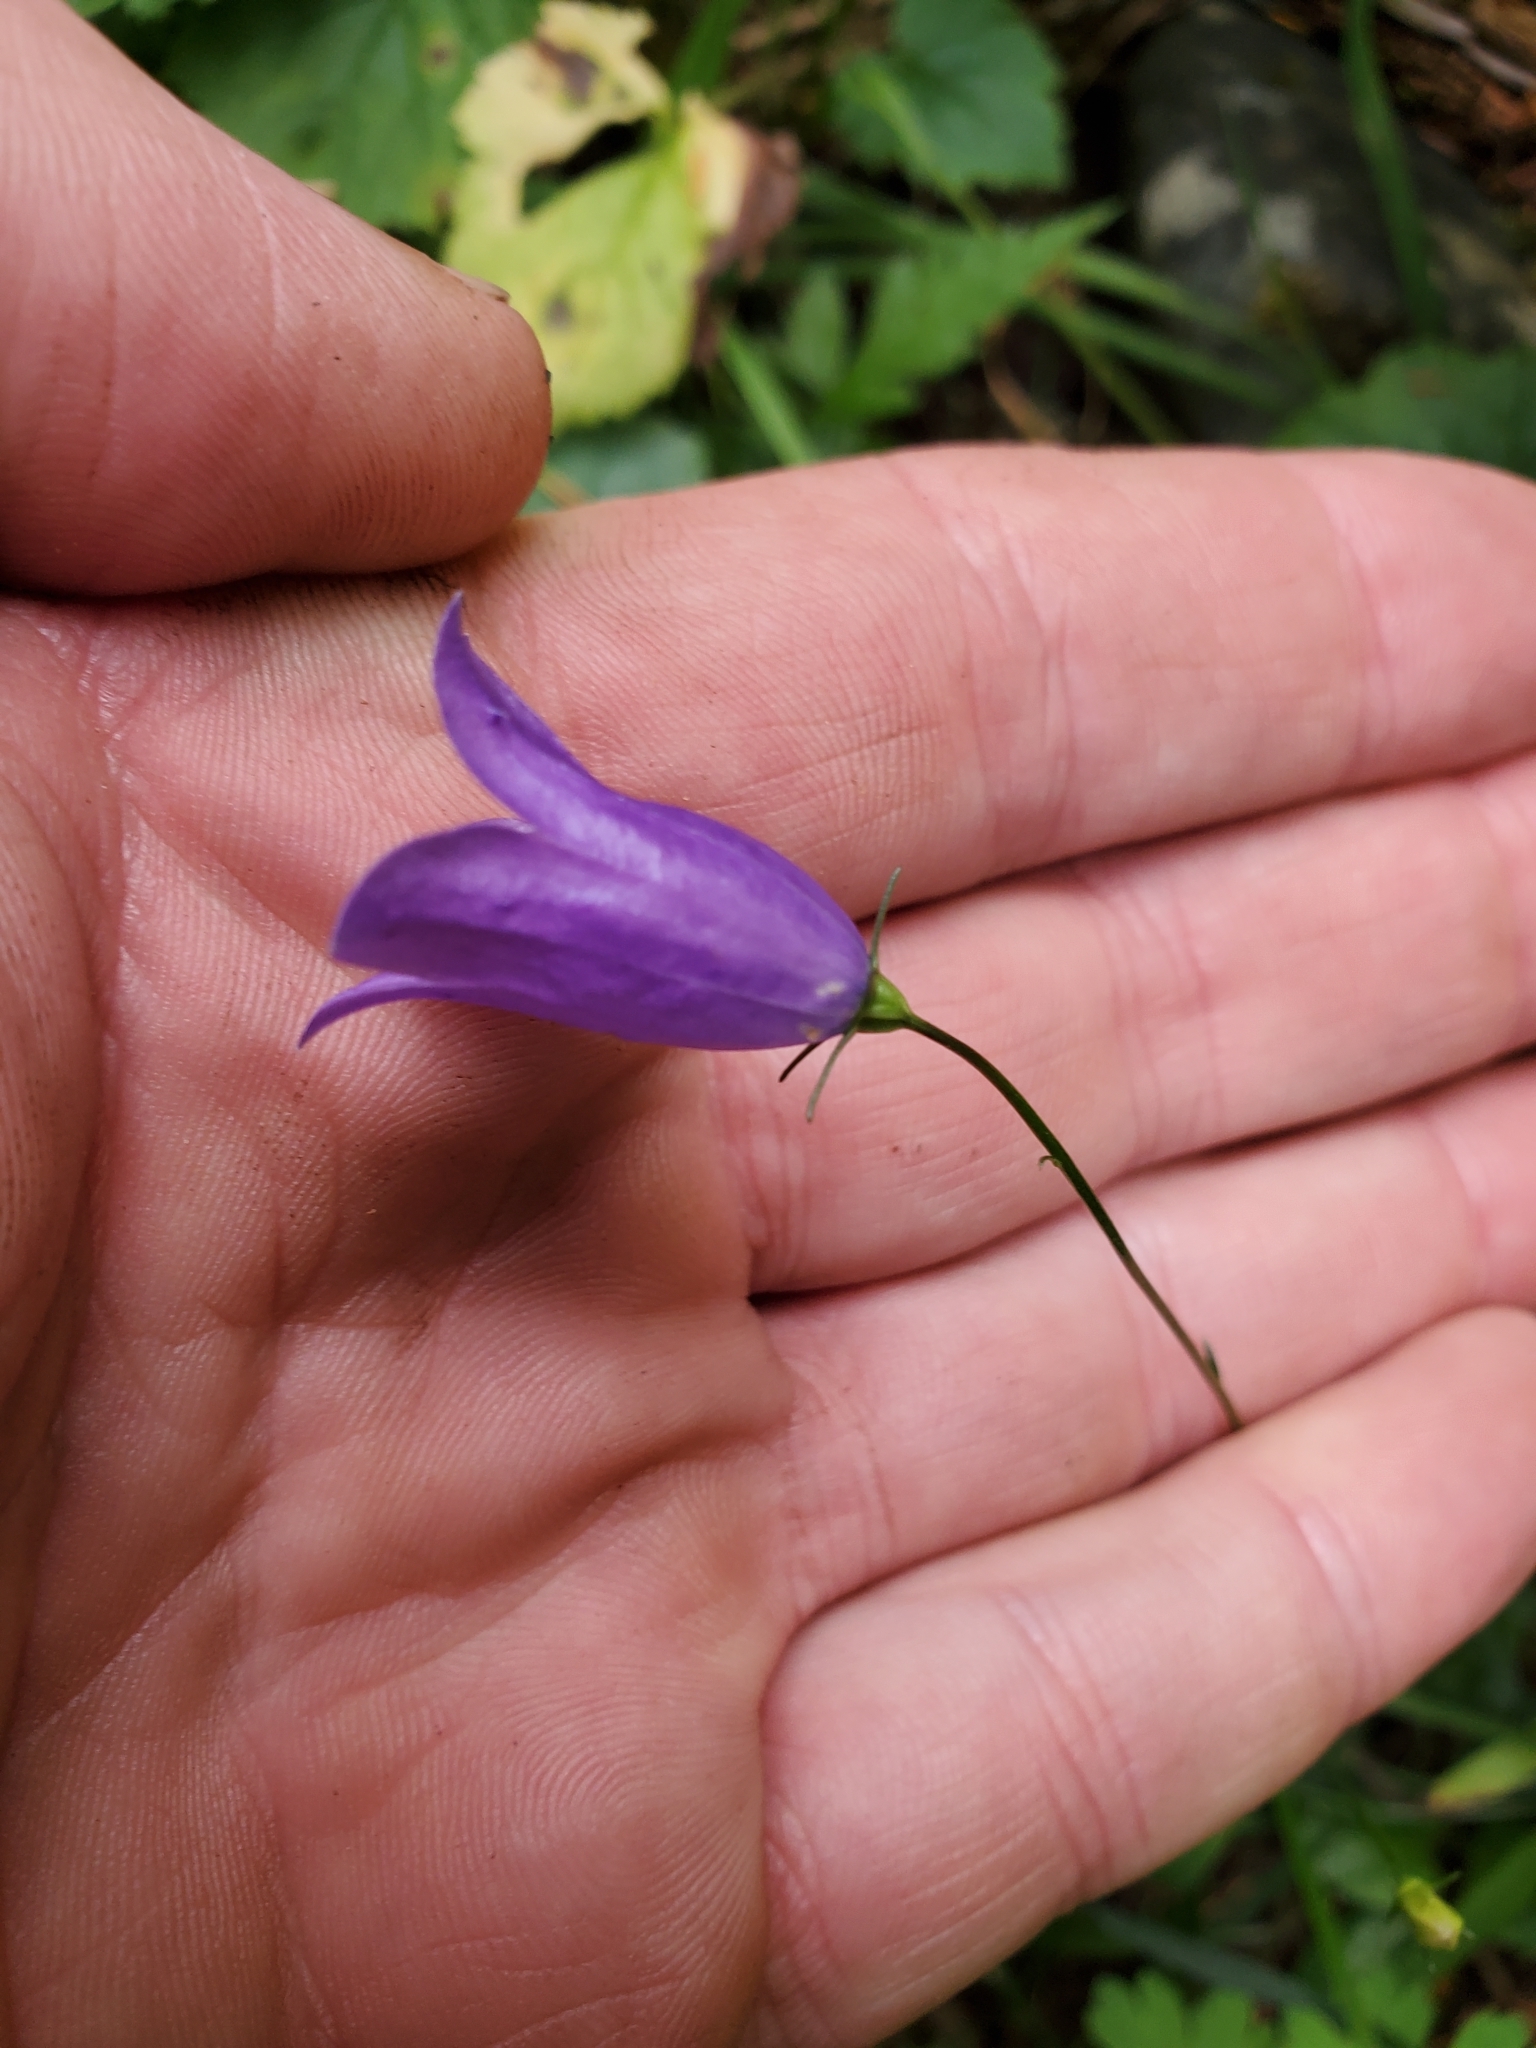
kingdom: Plantae
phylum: Tracheophyta
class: Magnoliopsida
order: Asterales
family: Campanulaceae
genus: Campanula
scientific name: Campanula alaskana
